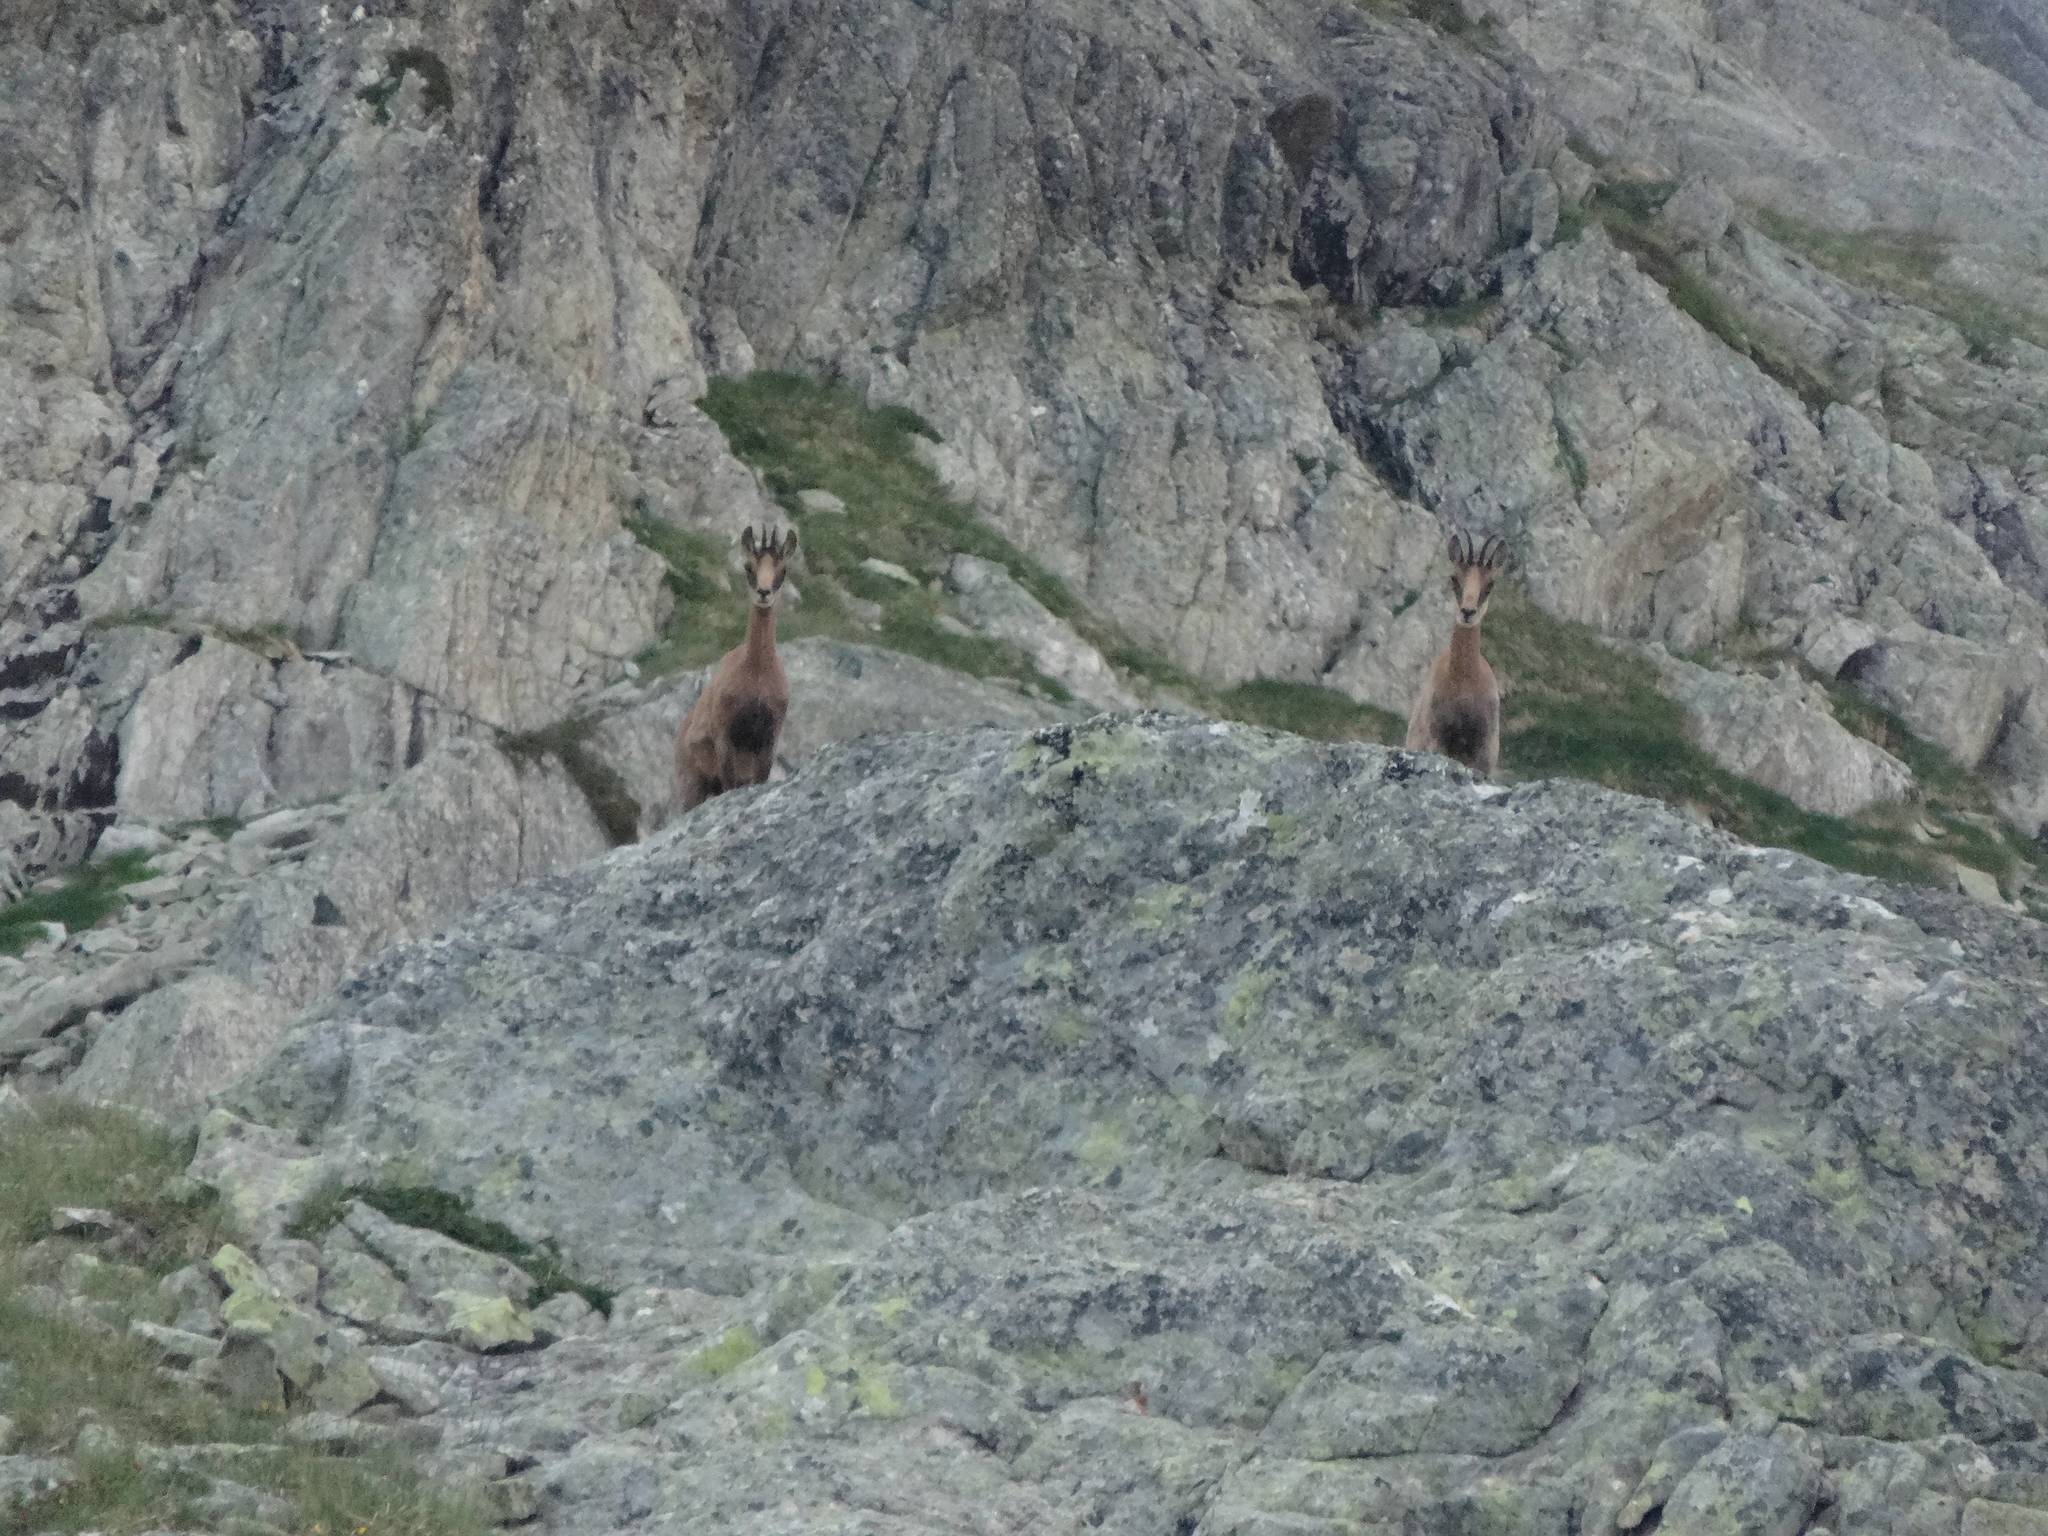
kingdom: Animalia
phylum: Chordata
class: Mammalia
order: Artiodactyla
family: Bovidae
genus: Rupicapra
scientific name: Rupicapra pyrenaica
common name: Pyrenean chamois
